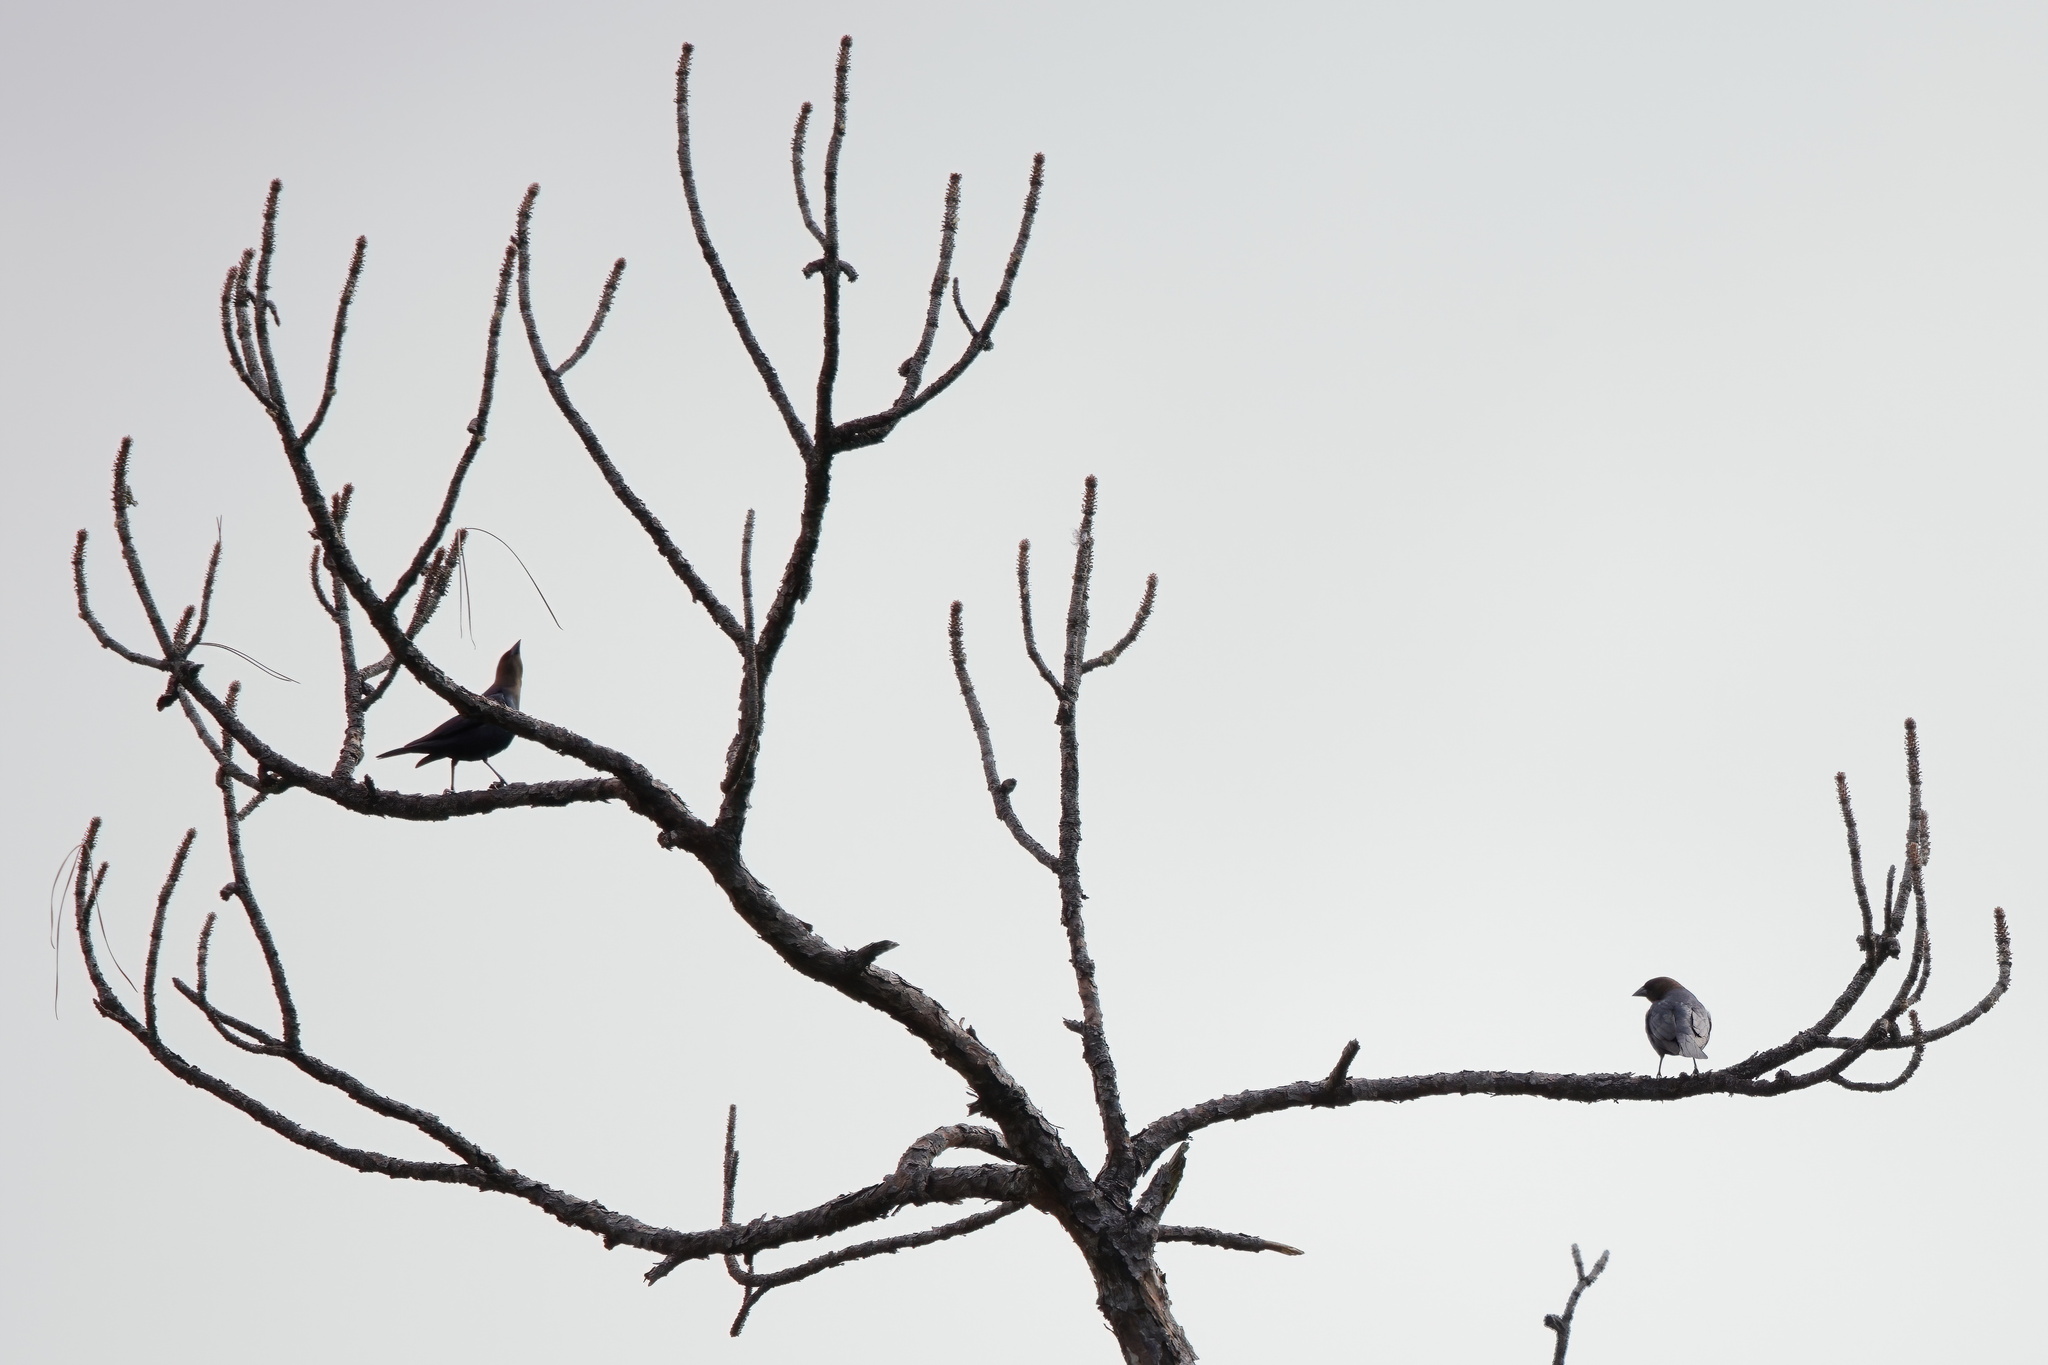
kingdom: Animalia
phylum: Chordata
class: Aves
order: Passeriformes
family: Icteridae
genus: Molothrus
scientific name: Molothrus ater
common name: Brown-headed cowbird
